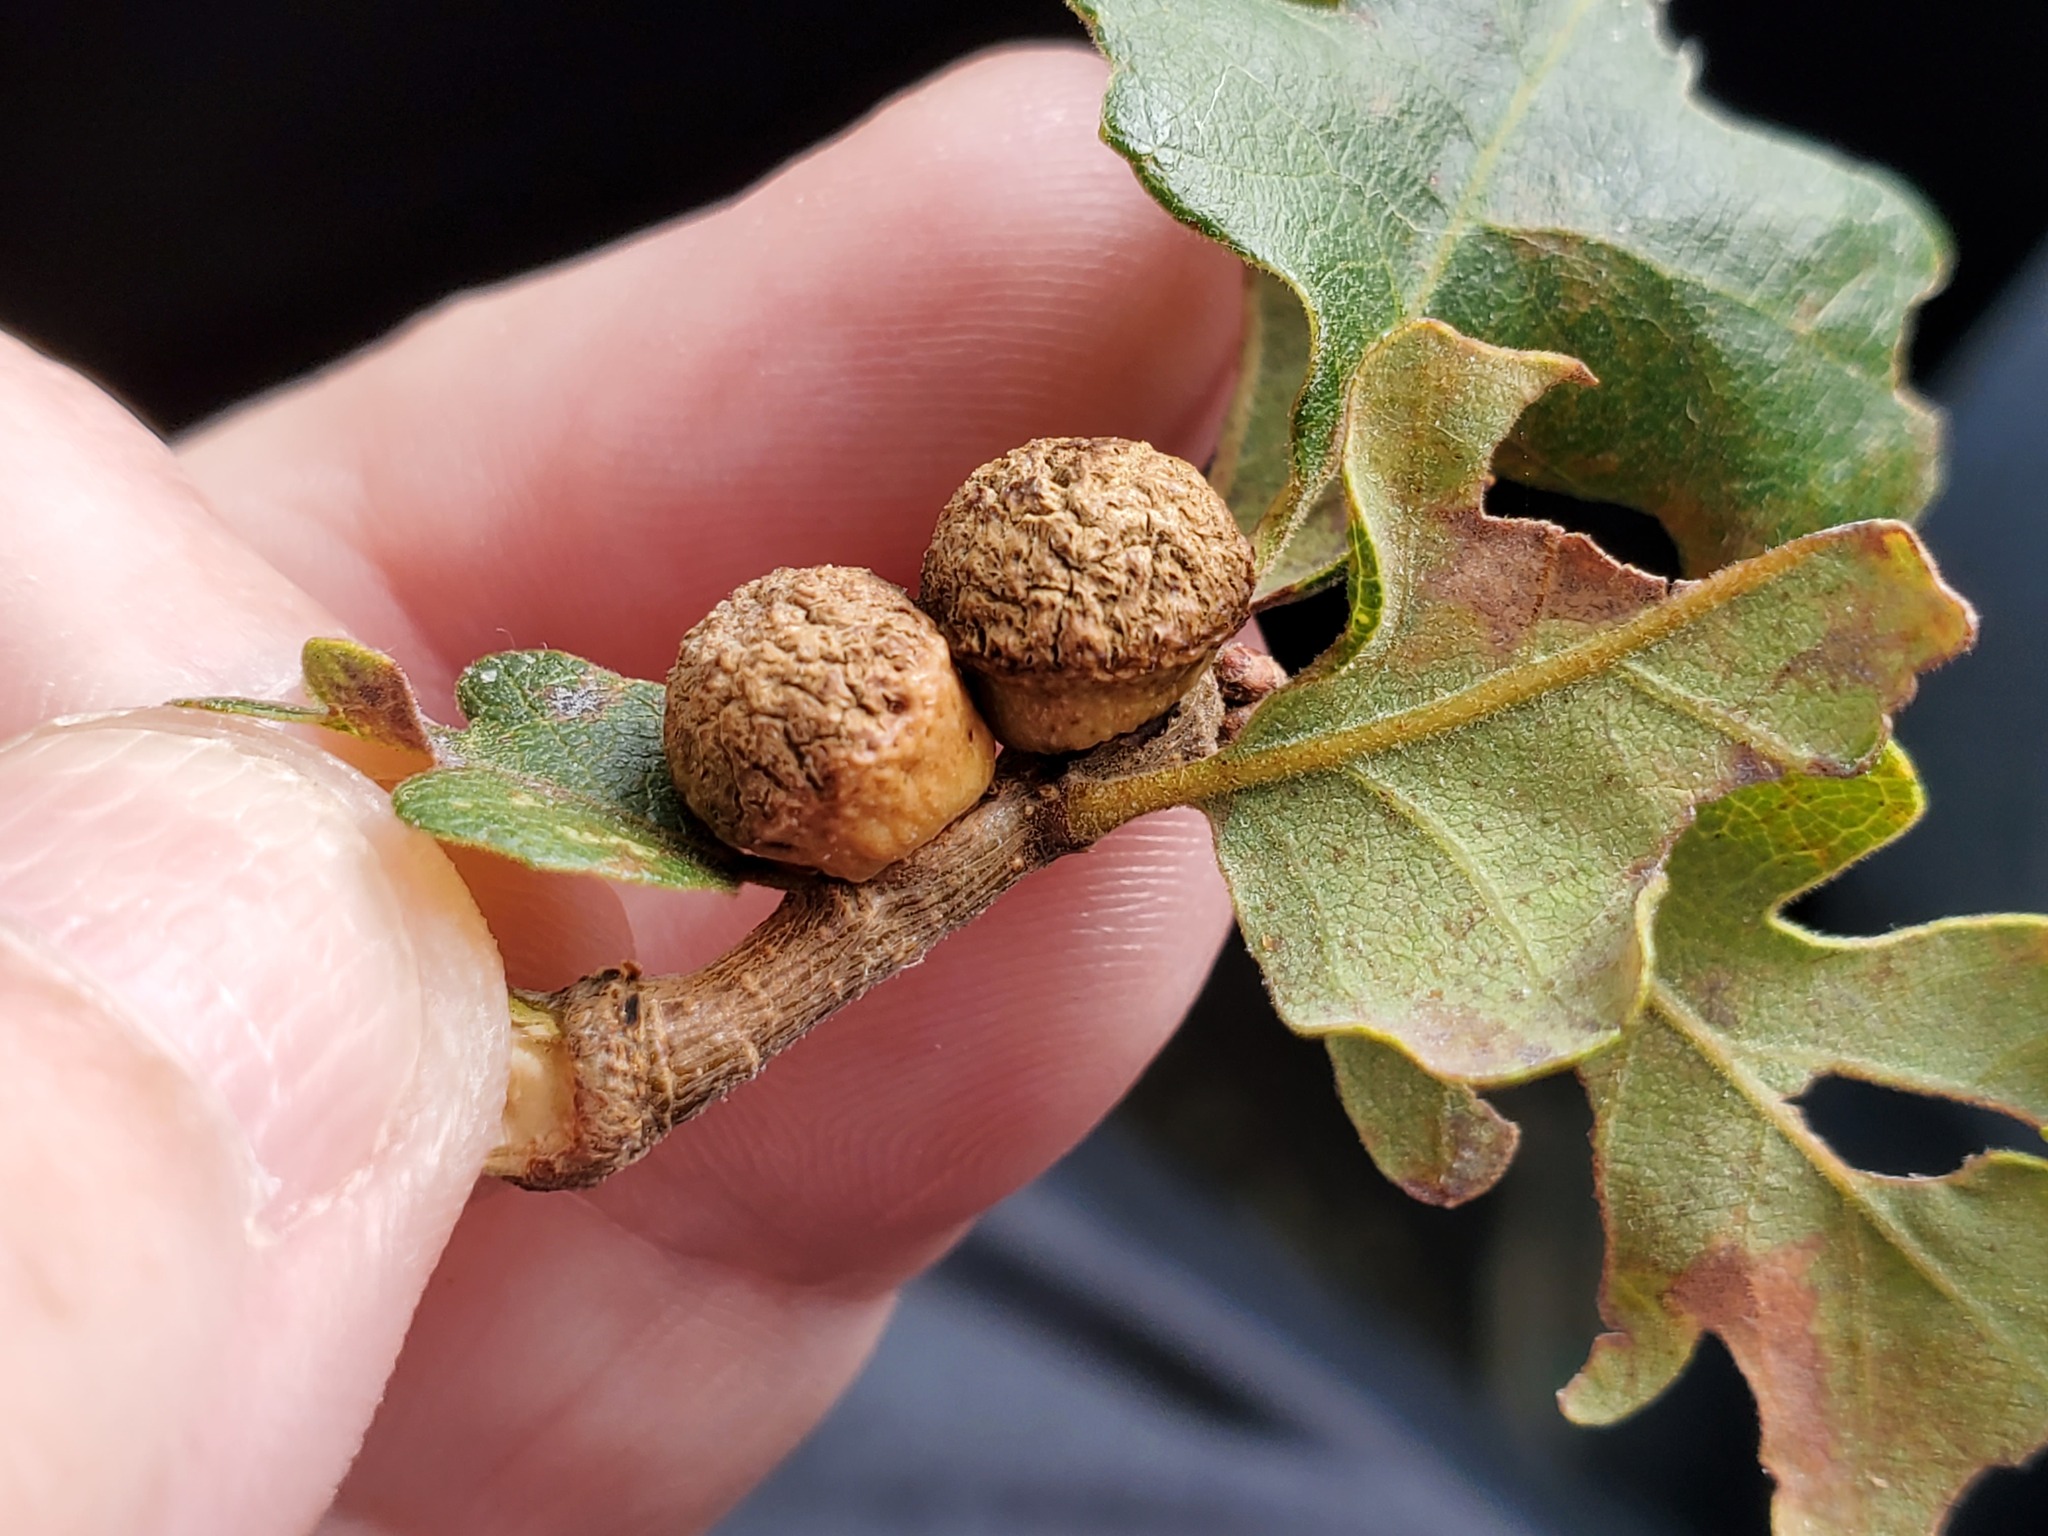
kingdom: Animalia
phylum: Arthropoda
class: Insecta
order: Hymenoptera
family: Cynipidae
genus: Disholcaspis
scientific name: Disholcaspis
